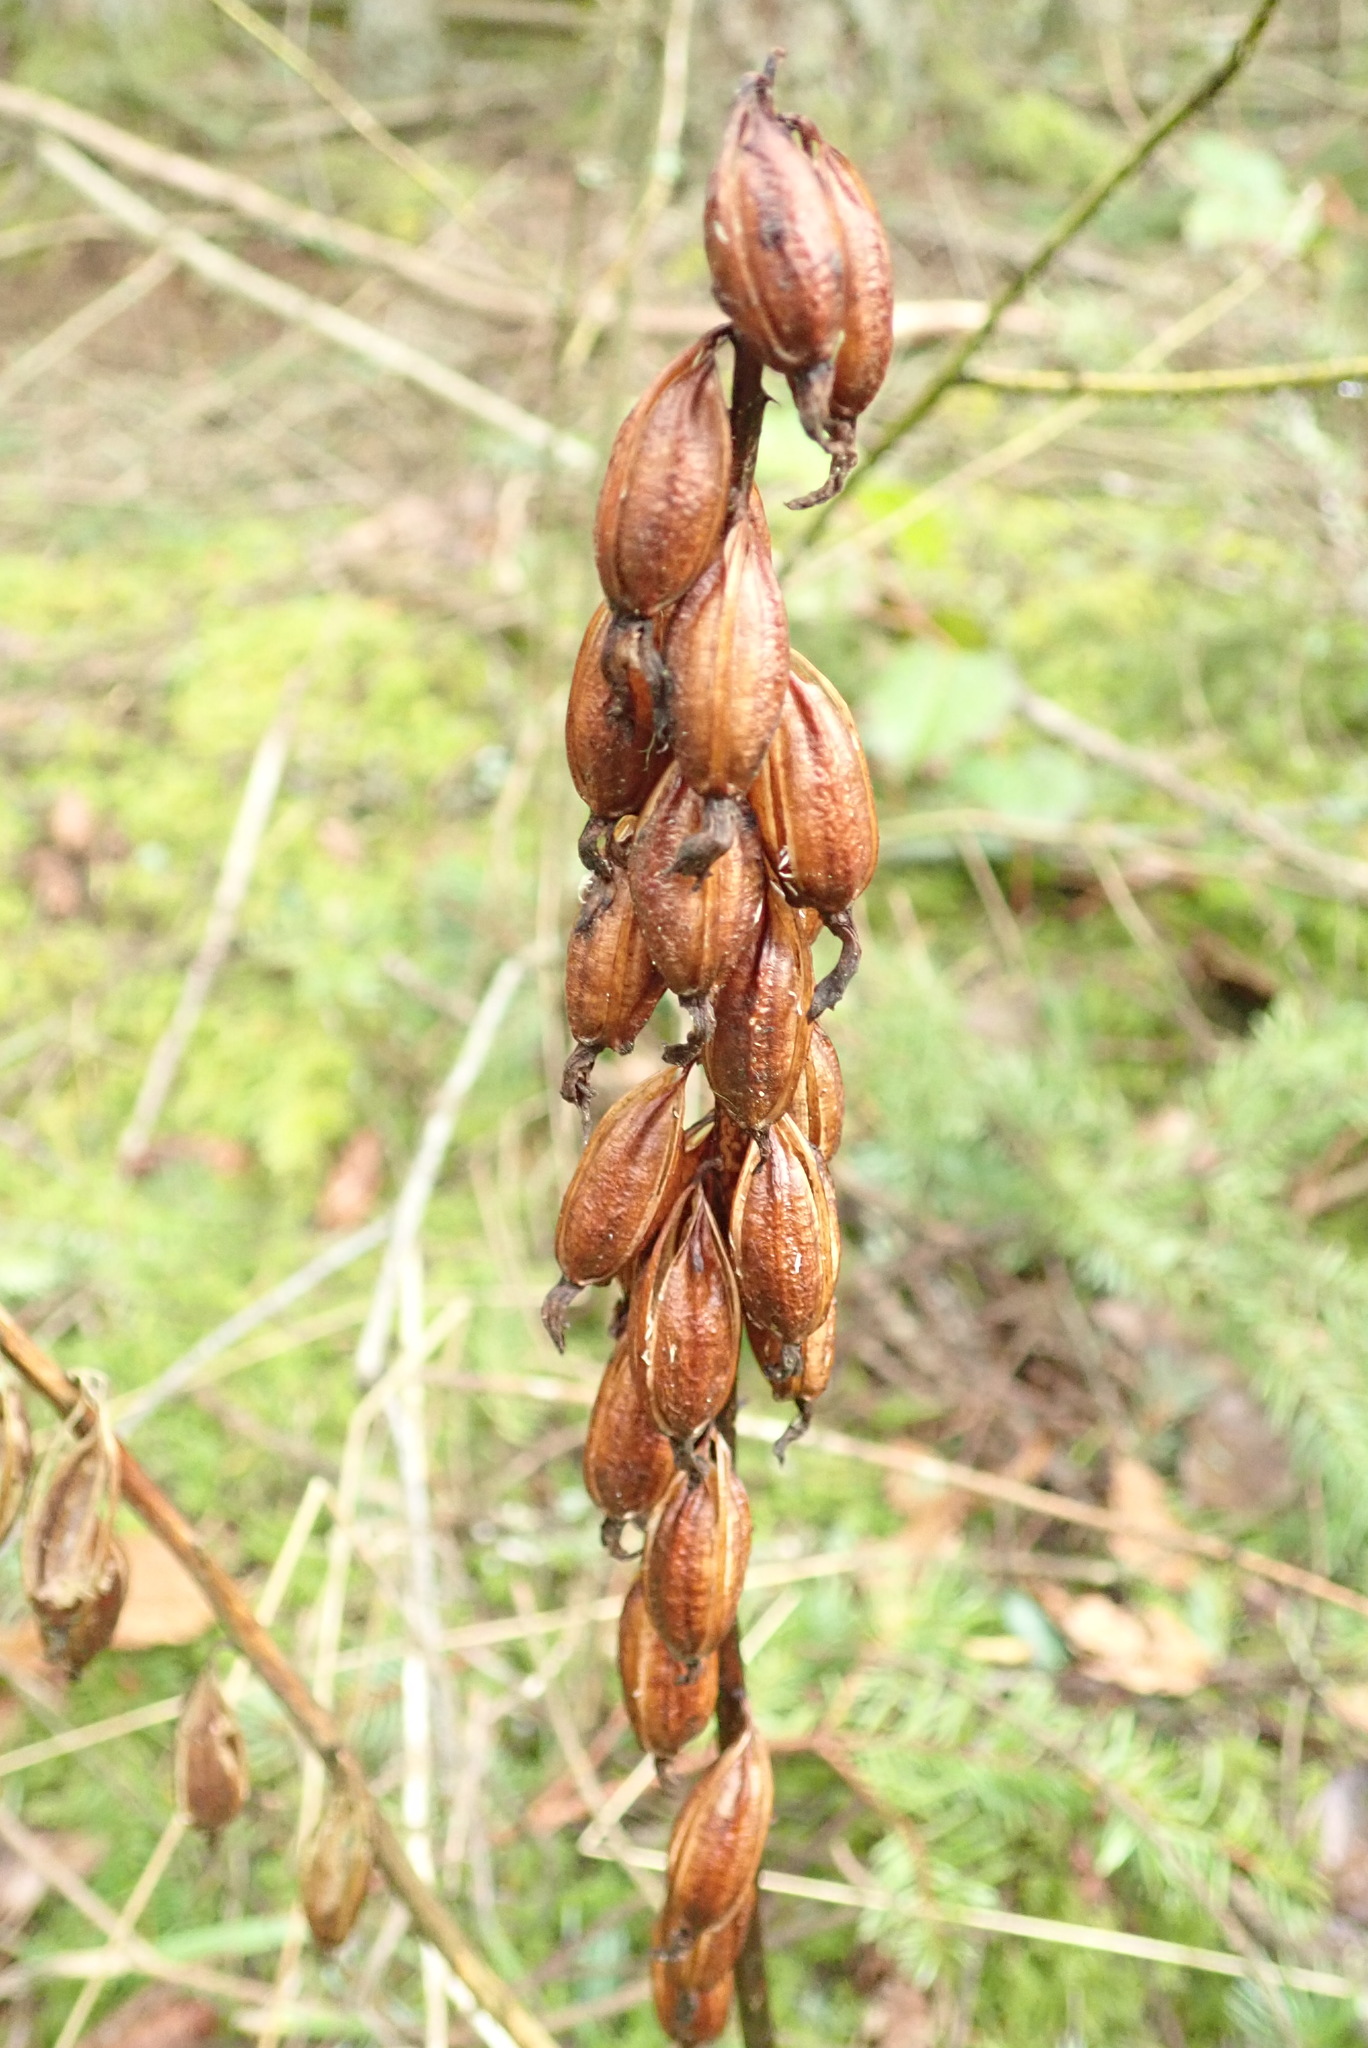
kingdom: Plantae
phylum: Tracheophyta
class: Liliopsida
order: Asparagales
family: Orchidaceae
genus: Corallorhiza
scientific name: Corallorhiza maculata
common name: Spotted coralroot
